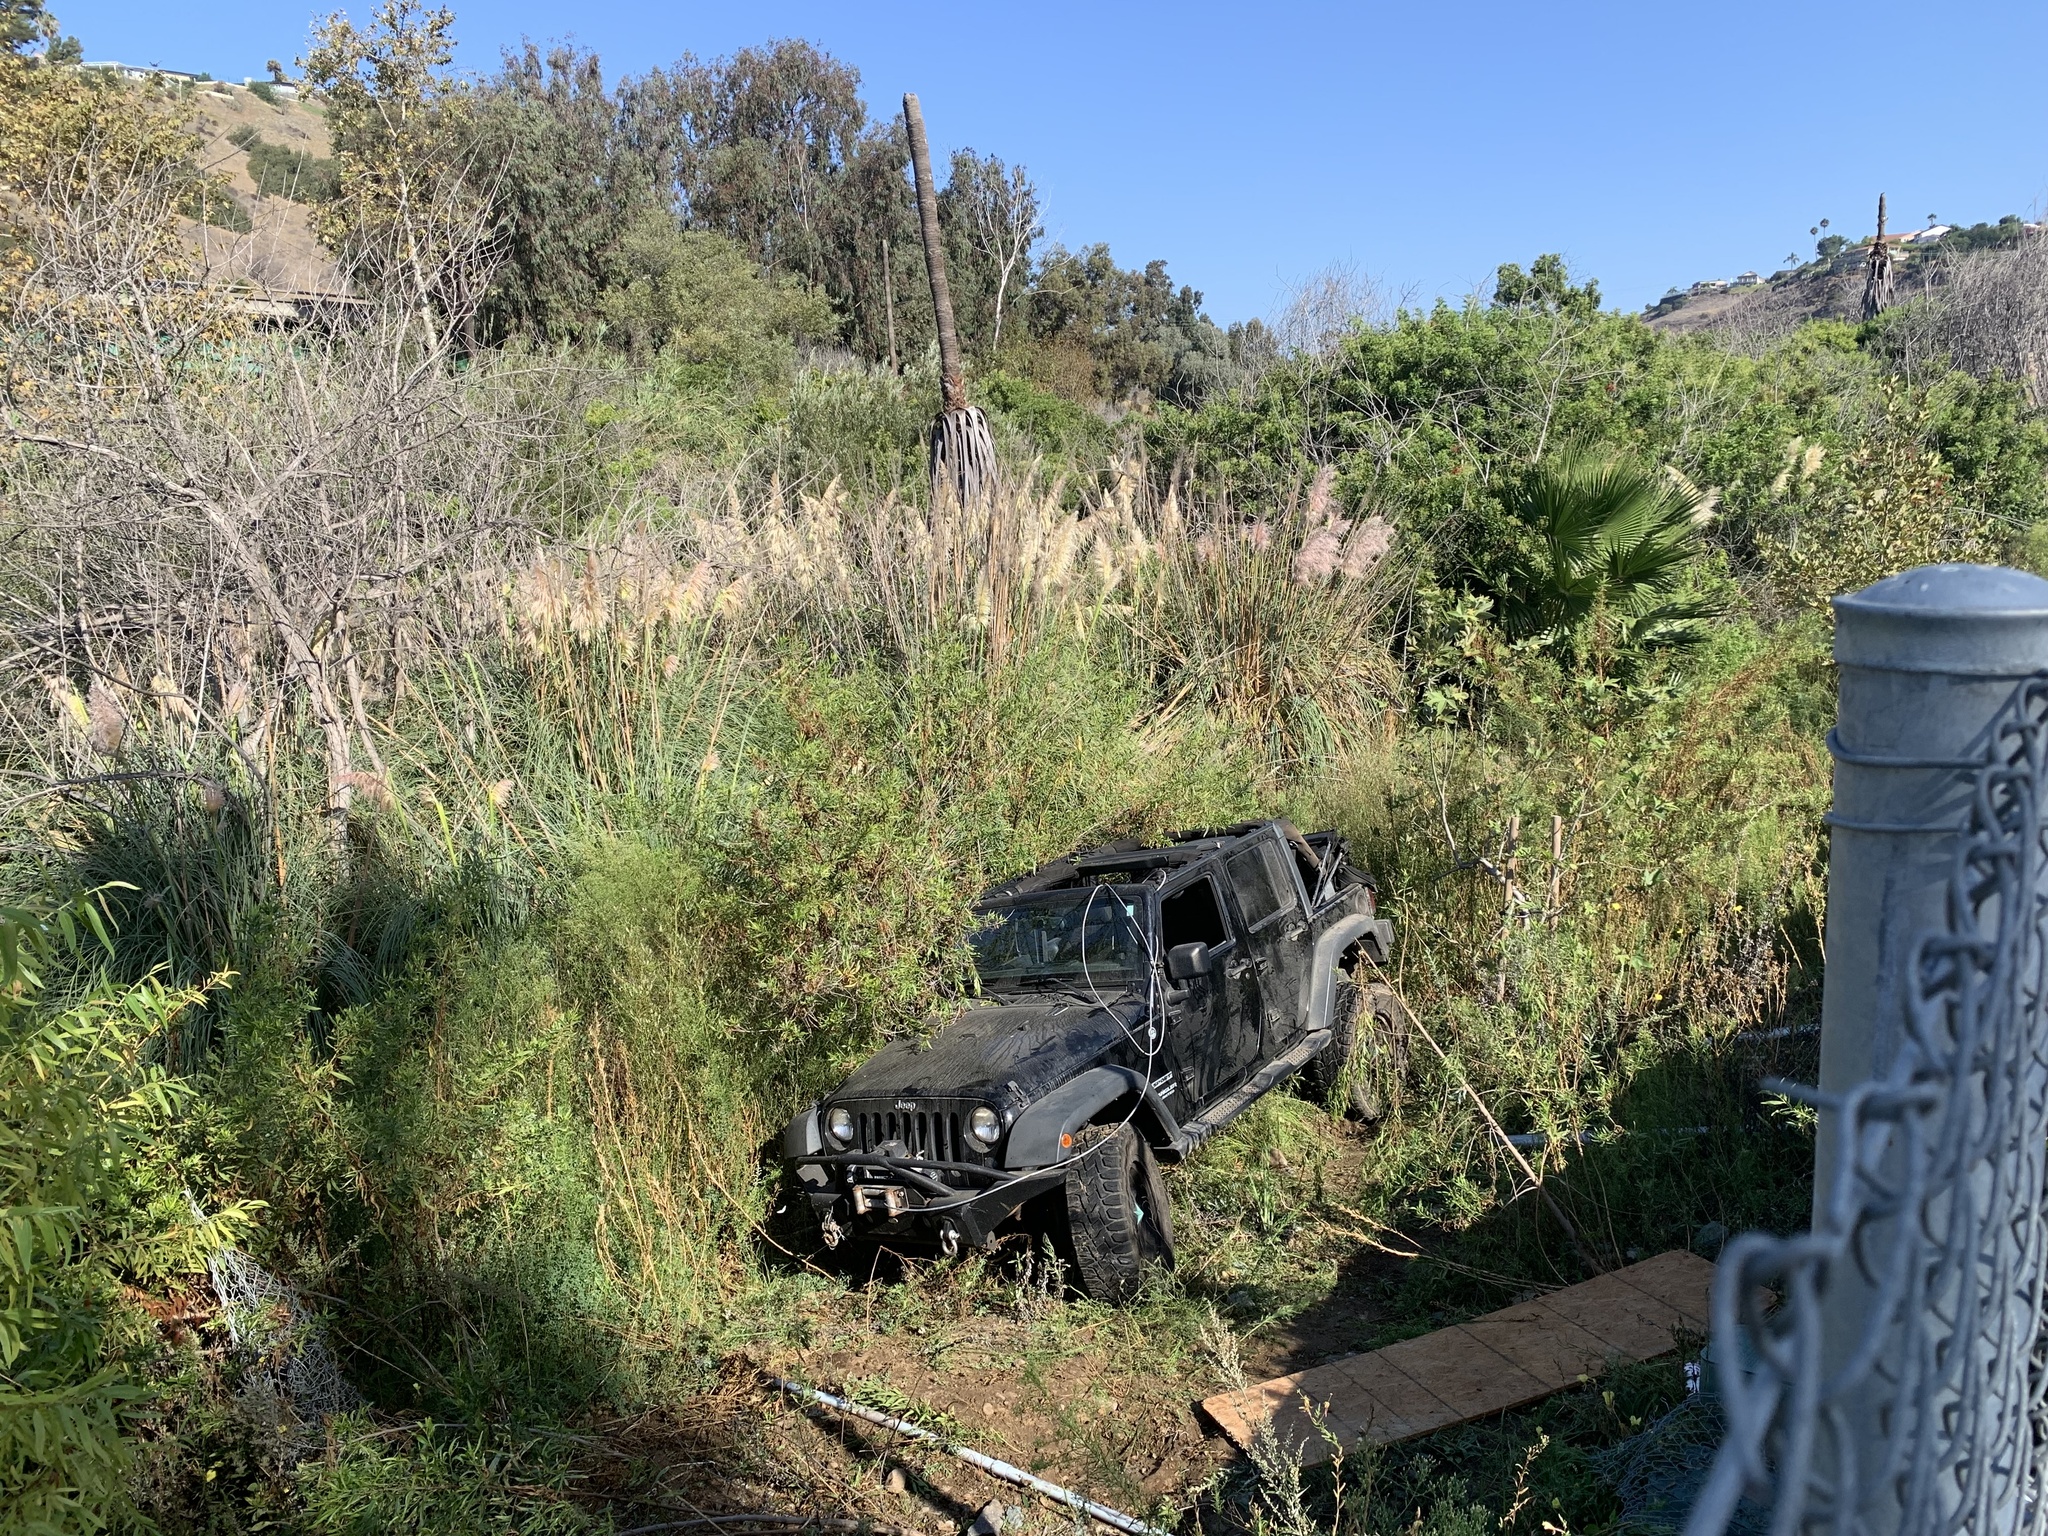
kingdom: Plantae
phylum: Tracheophyta
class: Liliopsida
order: Poales
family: Poaceae
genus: Cortaderia
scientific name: Cortaderia selloana
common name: Uruguayan pampas grass
